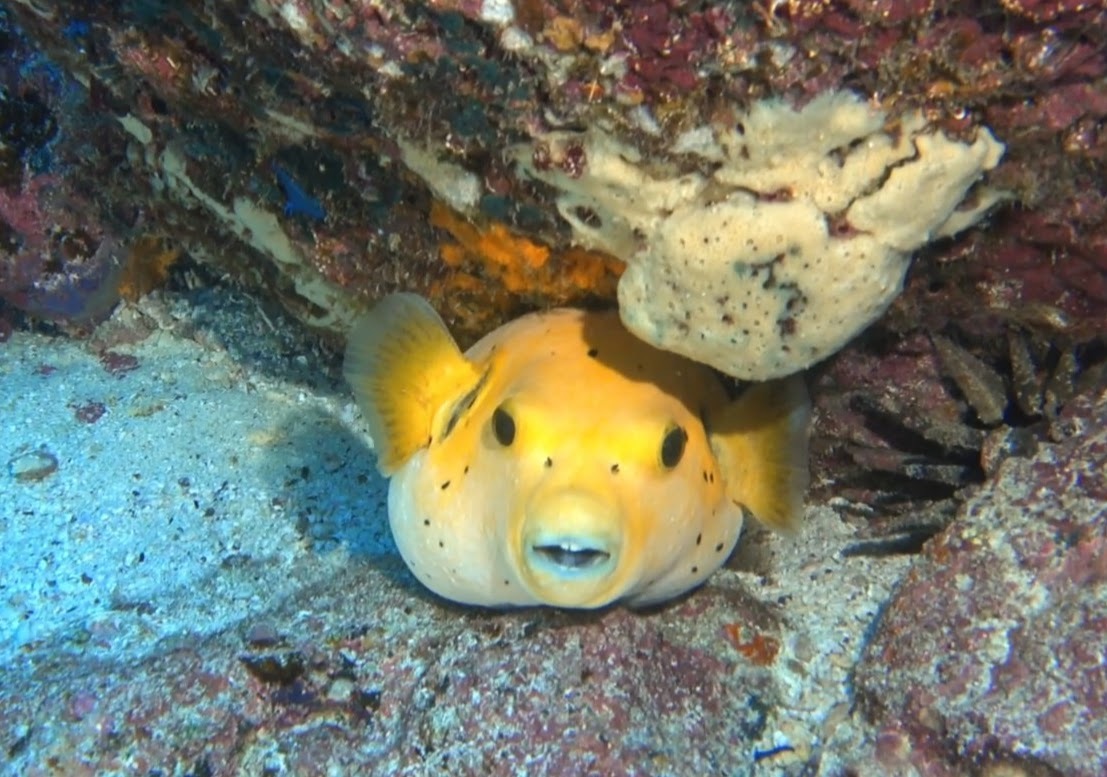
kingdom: Animalia
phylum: Chordata
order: Tetraodontiformes
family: Tetraodontidae
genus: Arothron
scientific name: Arothron meleagris
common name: Guinea-fowl pufferfish
